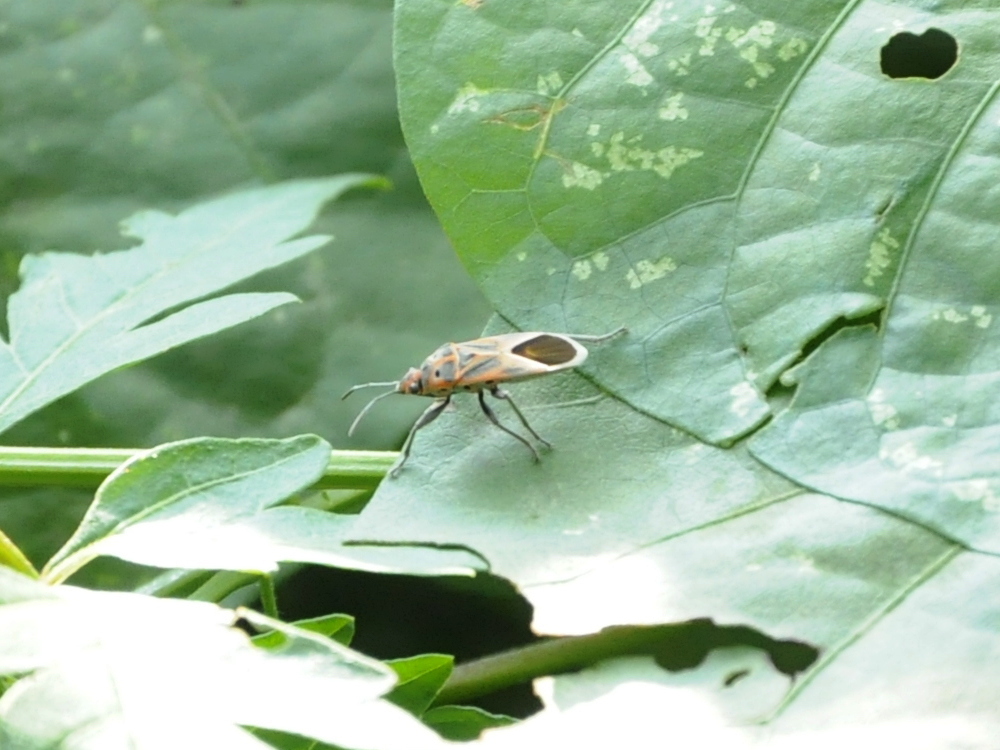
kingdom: Animalia
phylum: Arthropoda
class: Insecta
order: Hemiptera
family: Lygaeidae
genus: Graptostethus
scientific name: Graptostethus servus
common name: Lygaeid bug
